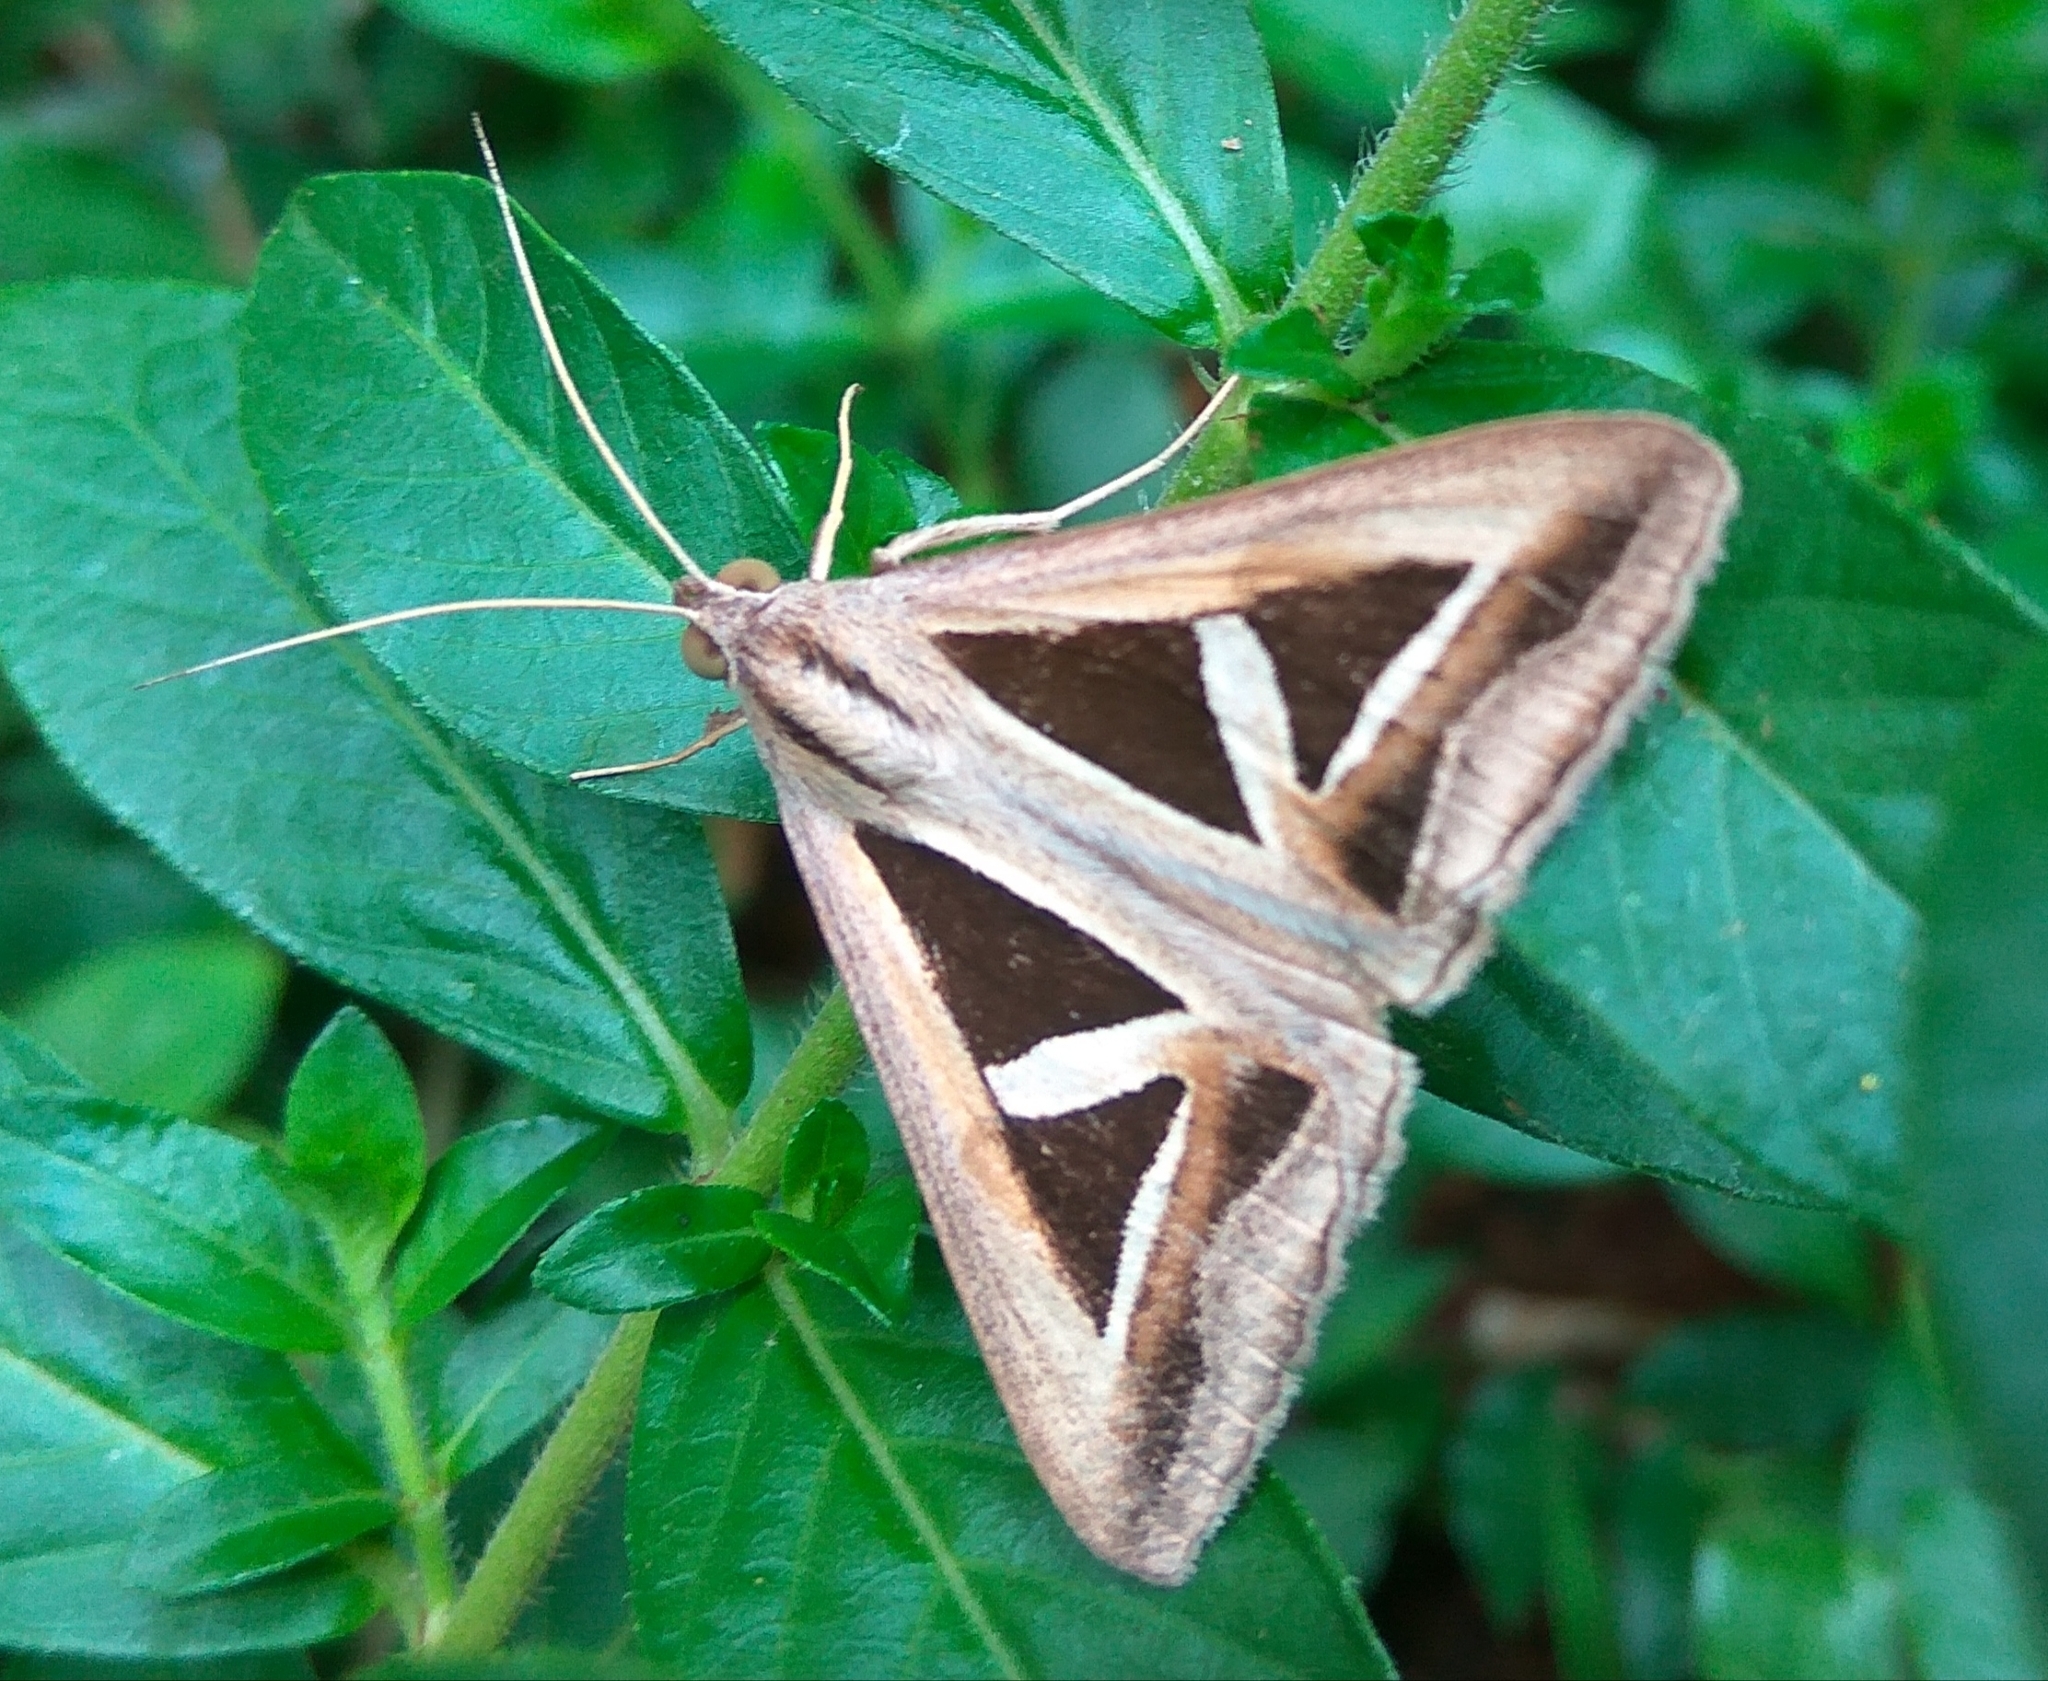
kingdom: Animalia
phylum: Arthropoda
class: Insecta
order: Lepidoptera
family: Erebidae
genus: Trigonodes
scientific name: Trigonodes hyppasia
